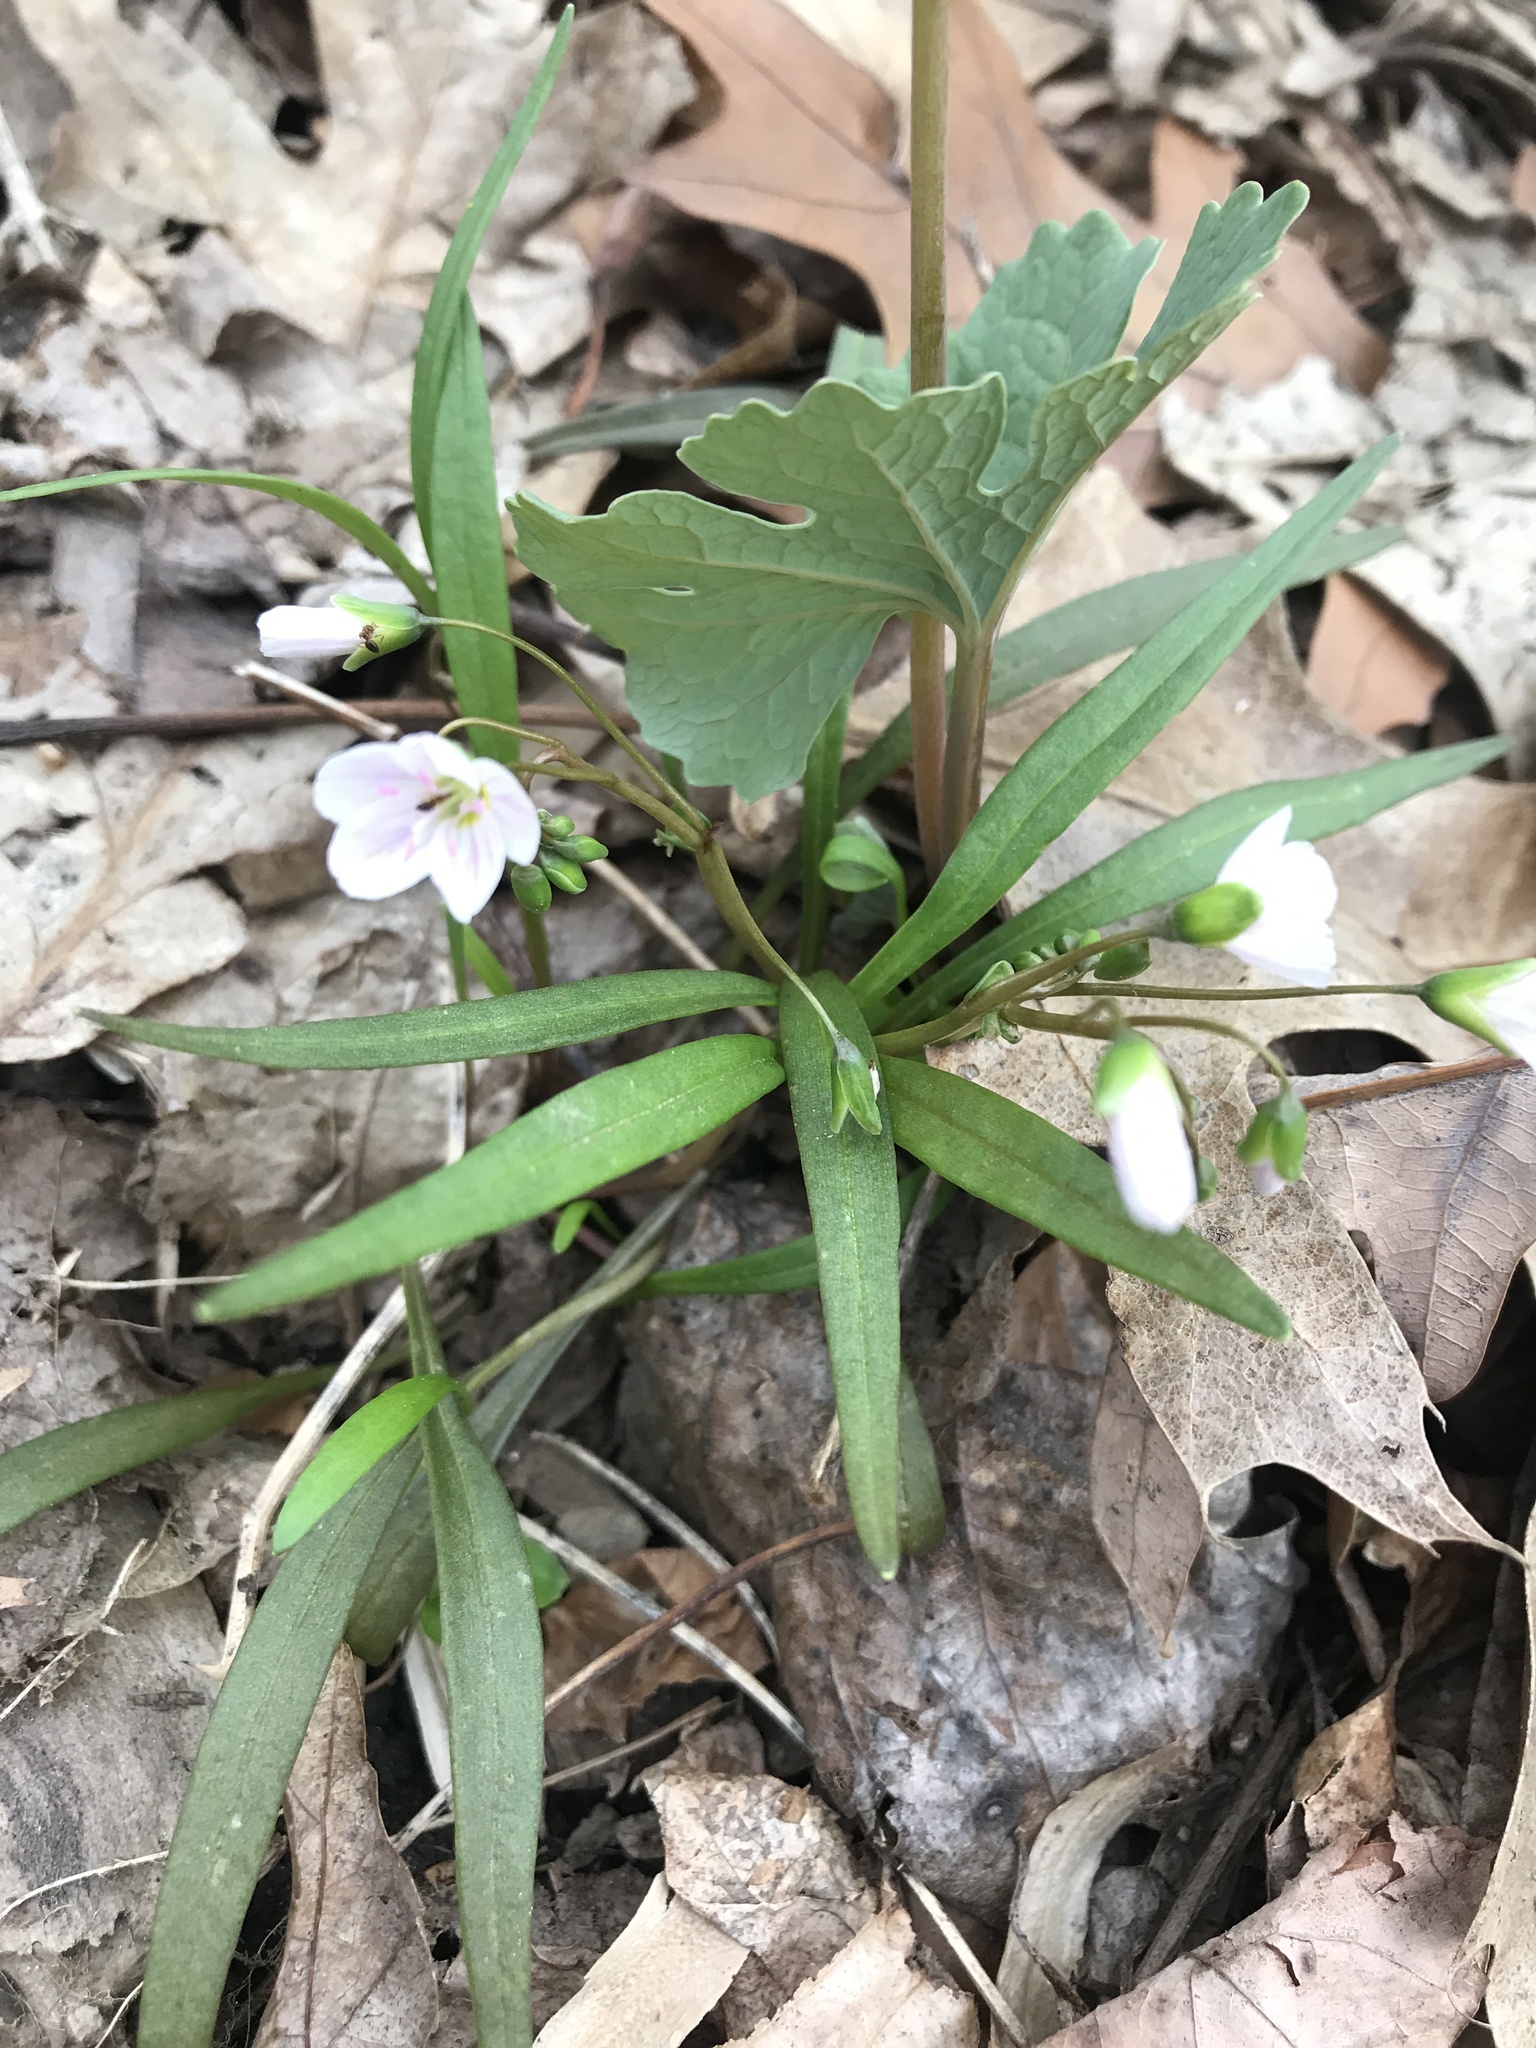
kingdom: Plantae
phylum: Tracheophyta
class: Magnoliopsida
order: Caryophyllales
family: Montiaceae
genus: Claytonia
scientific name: Claytonia virginica
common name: Virginia springbeauty
